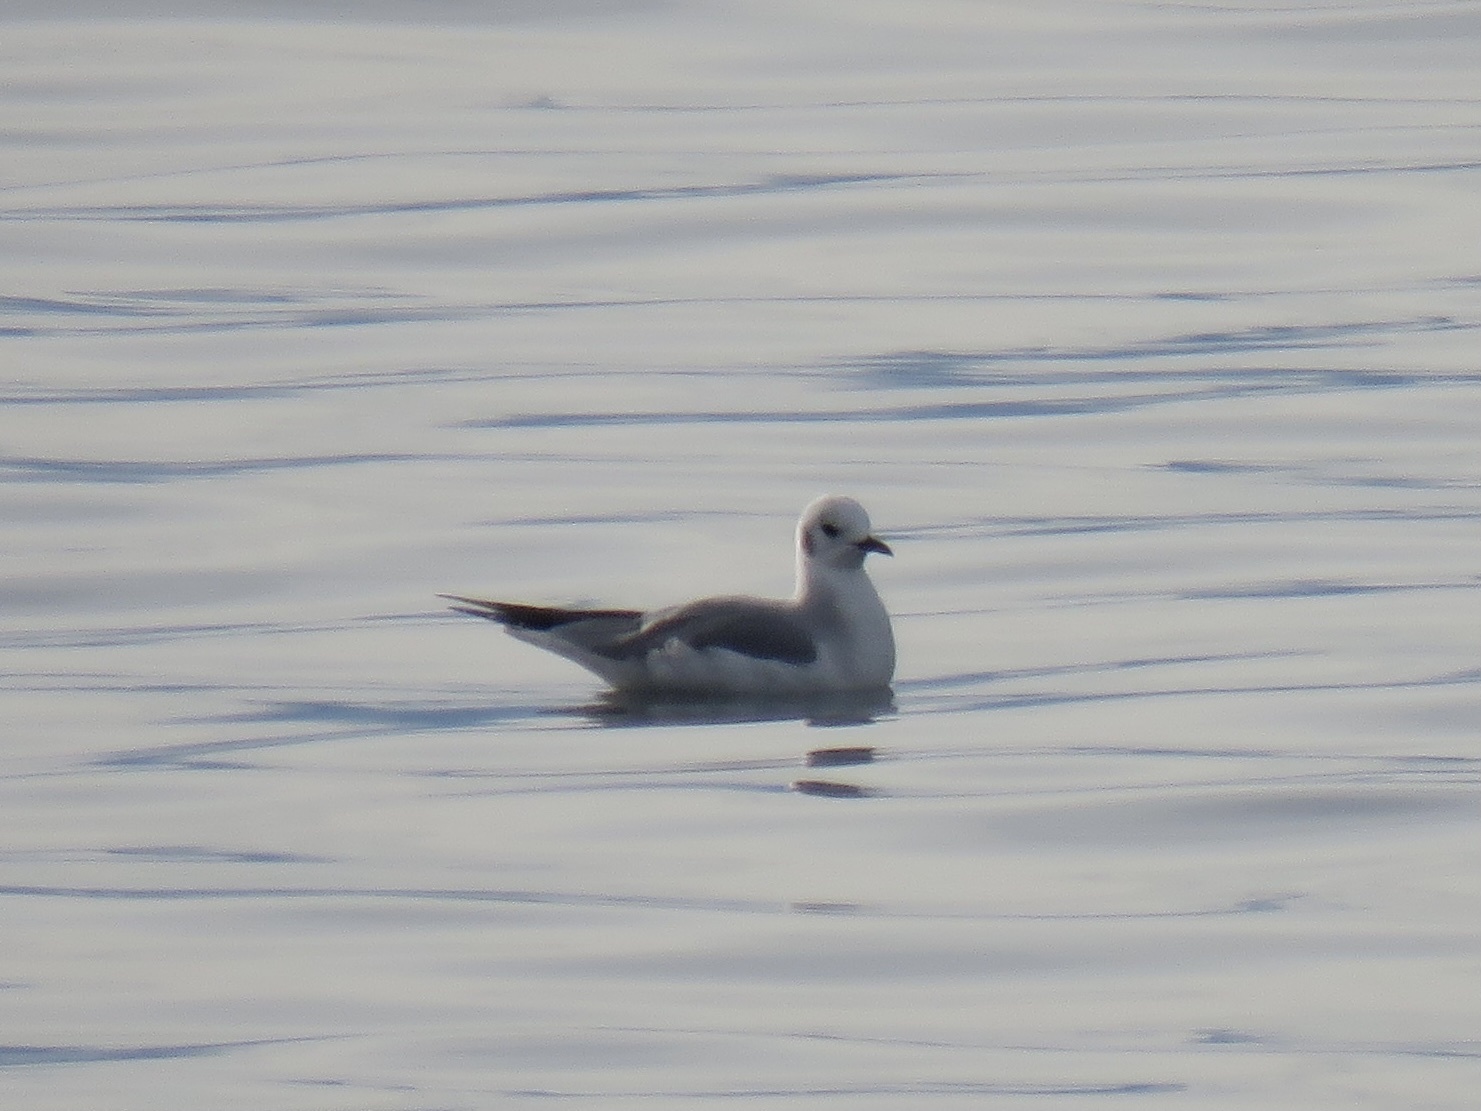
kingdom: Animalia
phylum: Chordata
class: Aves
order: Charadriiformes
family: Laridae
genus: Chroicocephalus
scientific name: Chroicocephalus philadelphia
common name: Bonaparte's gull
